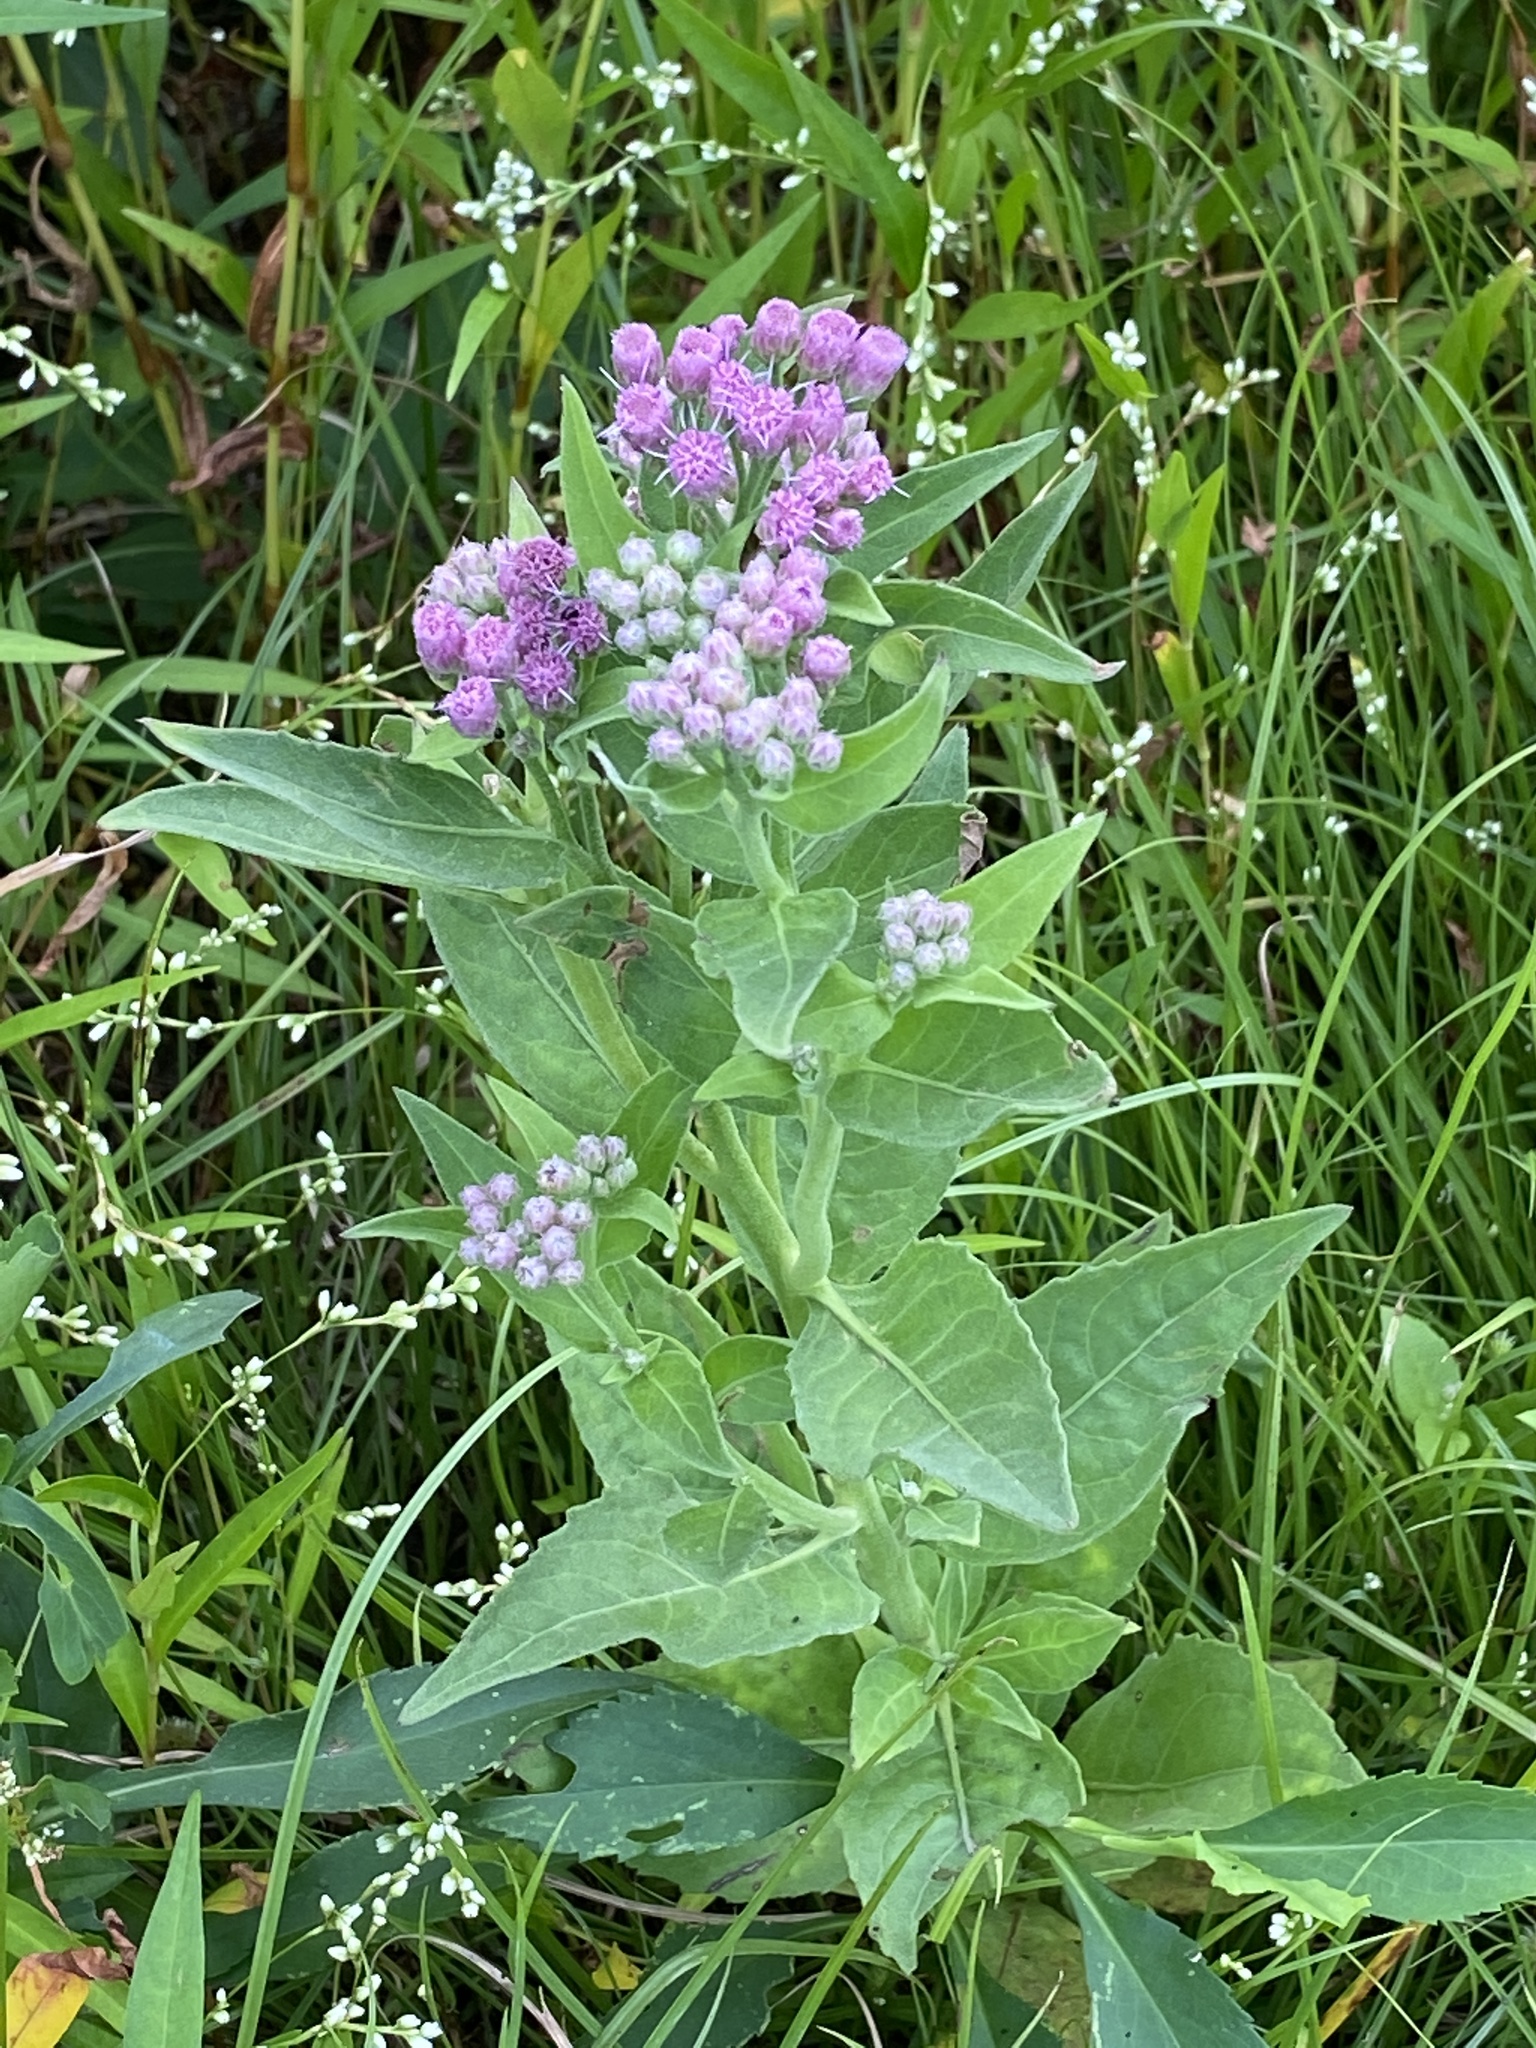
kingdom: Plantae
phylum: Tracheophyta
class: Magnoliopsida
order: Asterales
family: Asteraceae
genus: Pluchea
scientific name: Pluchea odorata
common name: Saltmarsh fleabane
